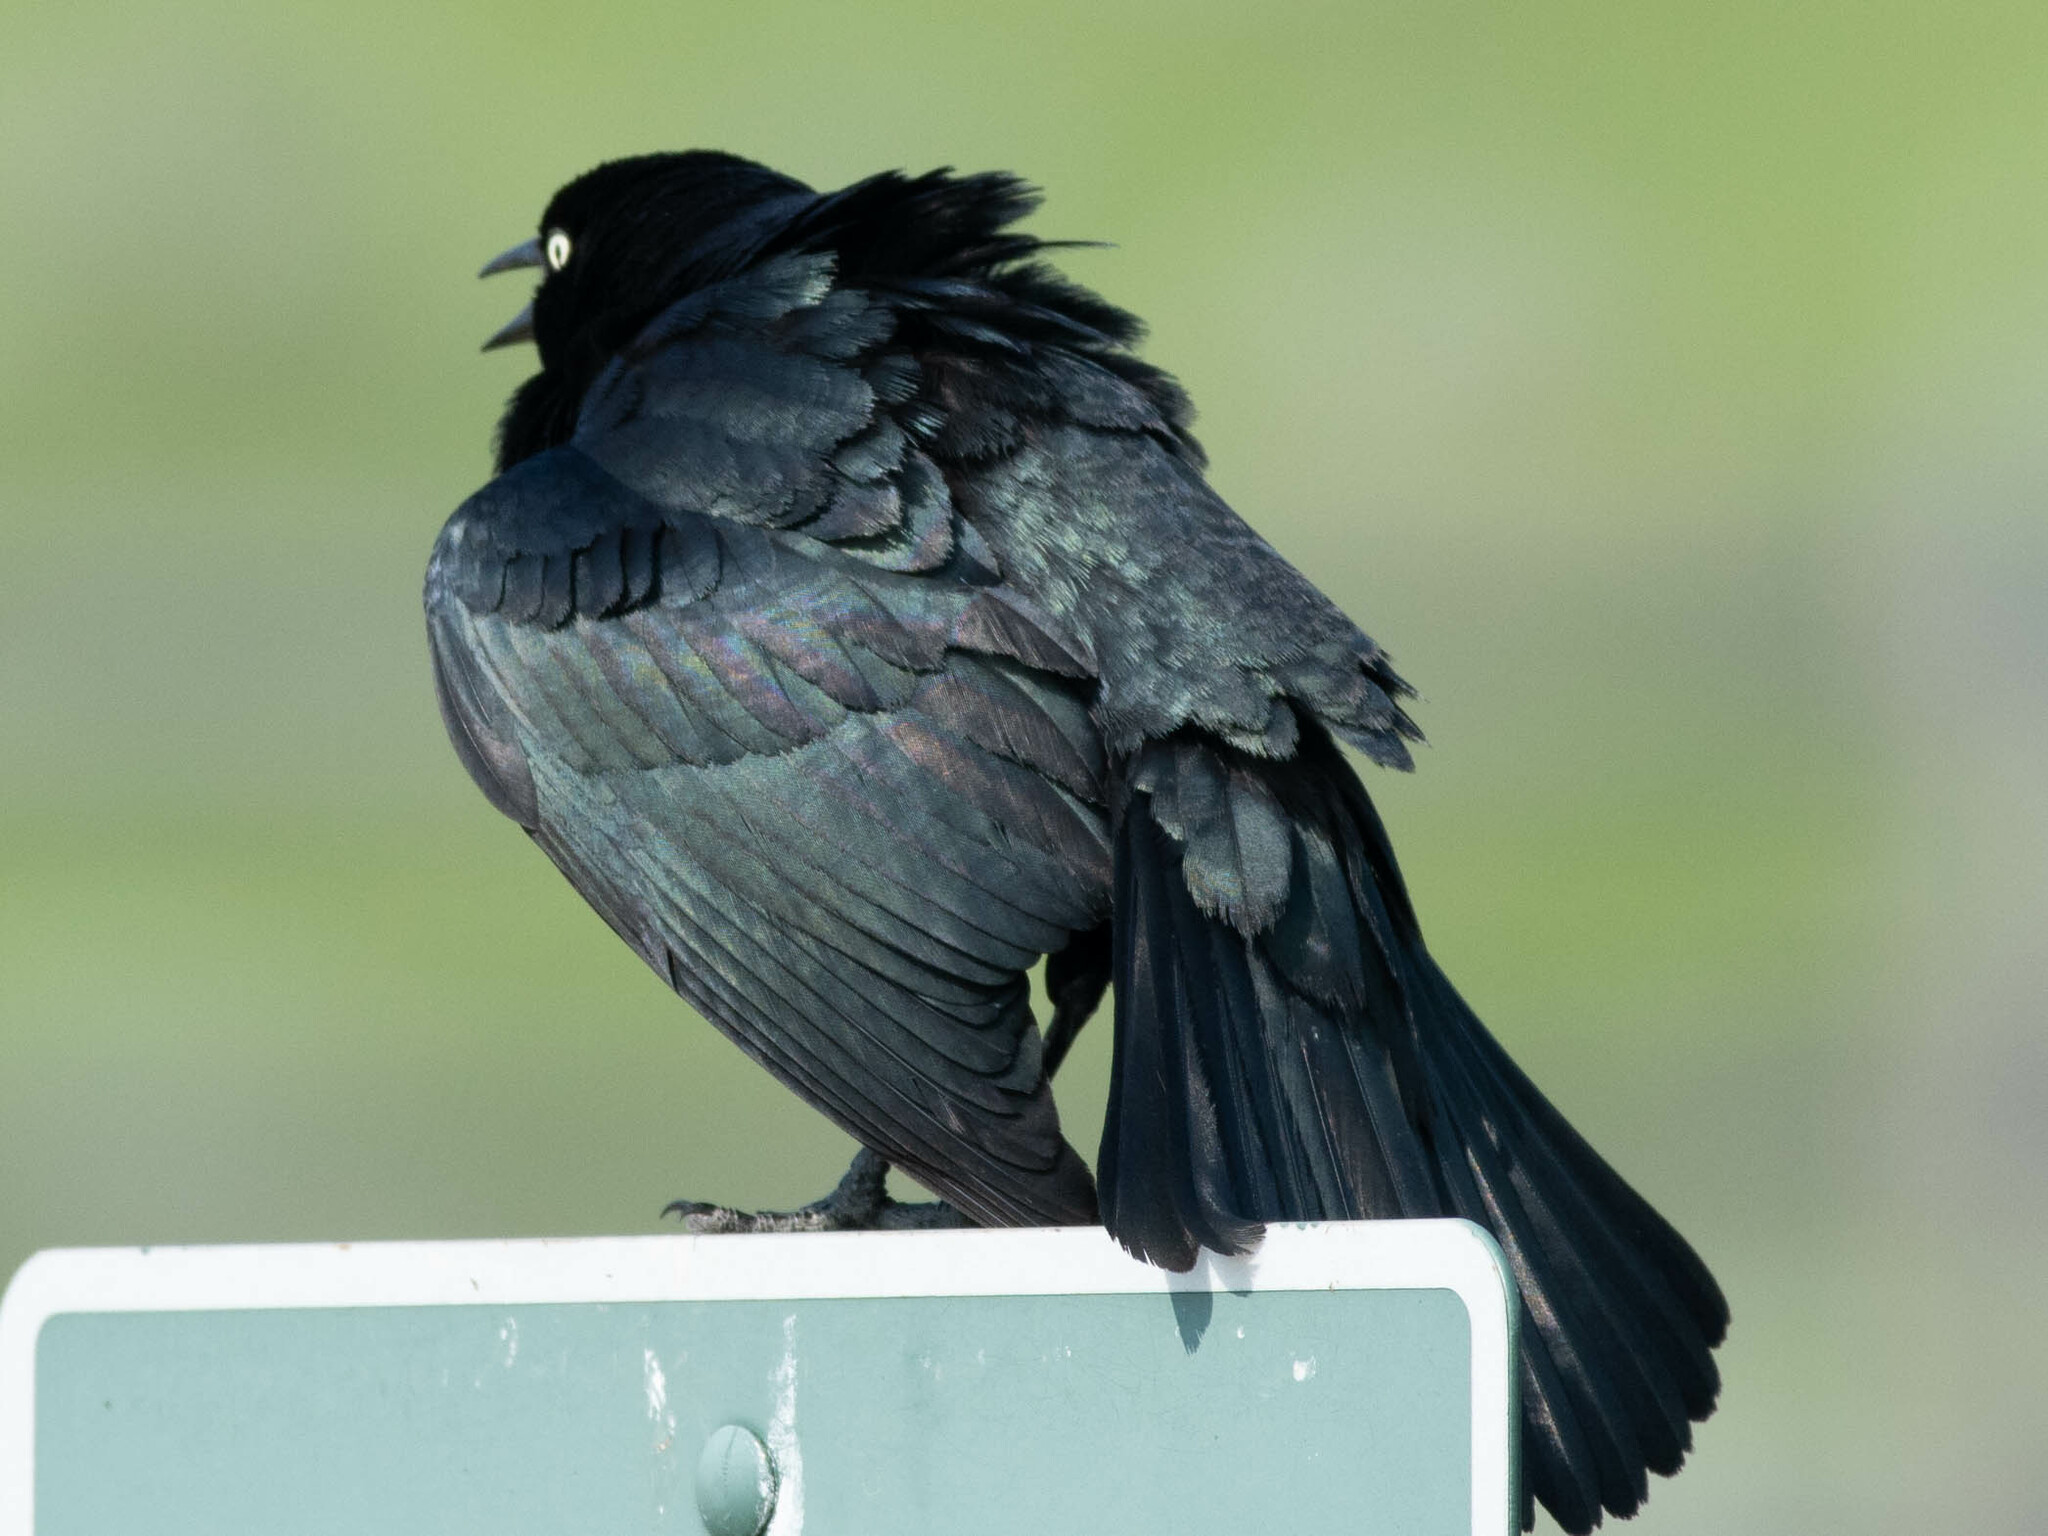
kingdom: Animalia
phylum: Chordata
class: Aves
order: Passeriformes
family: Icteridae
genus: Euphagus
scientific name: Euphagus cyanocephalus
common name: Brewer's blackbird
